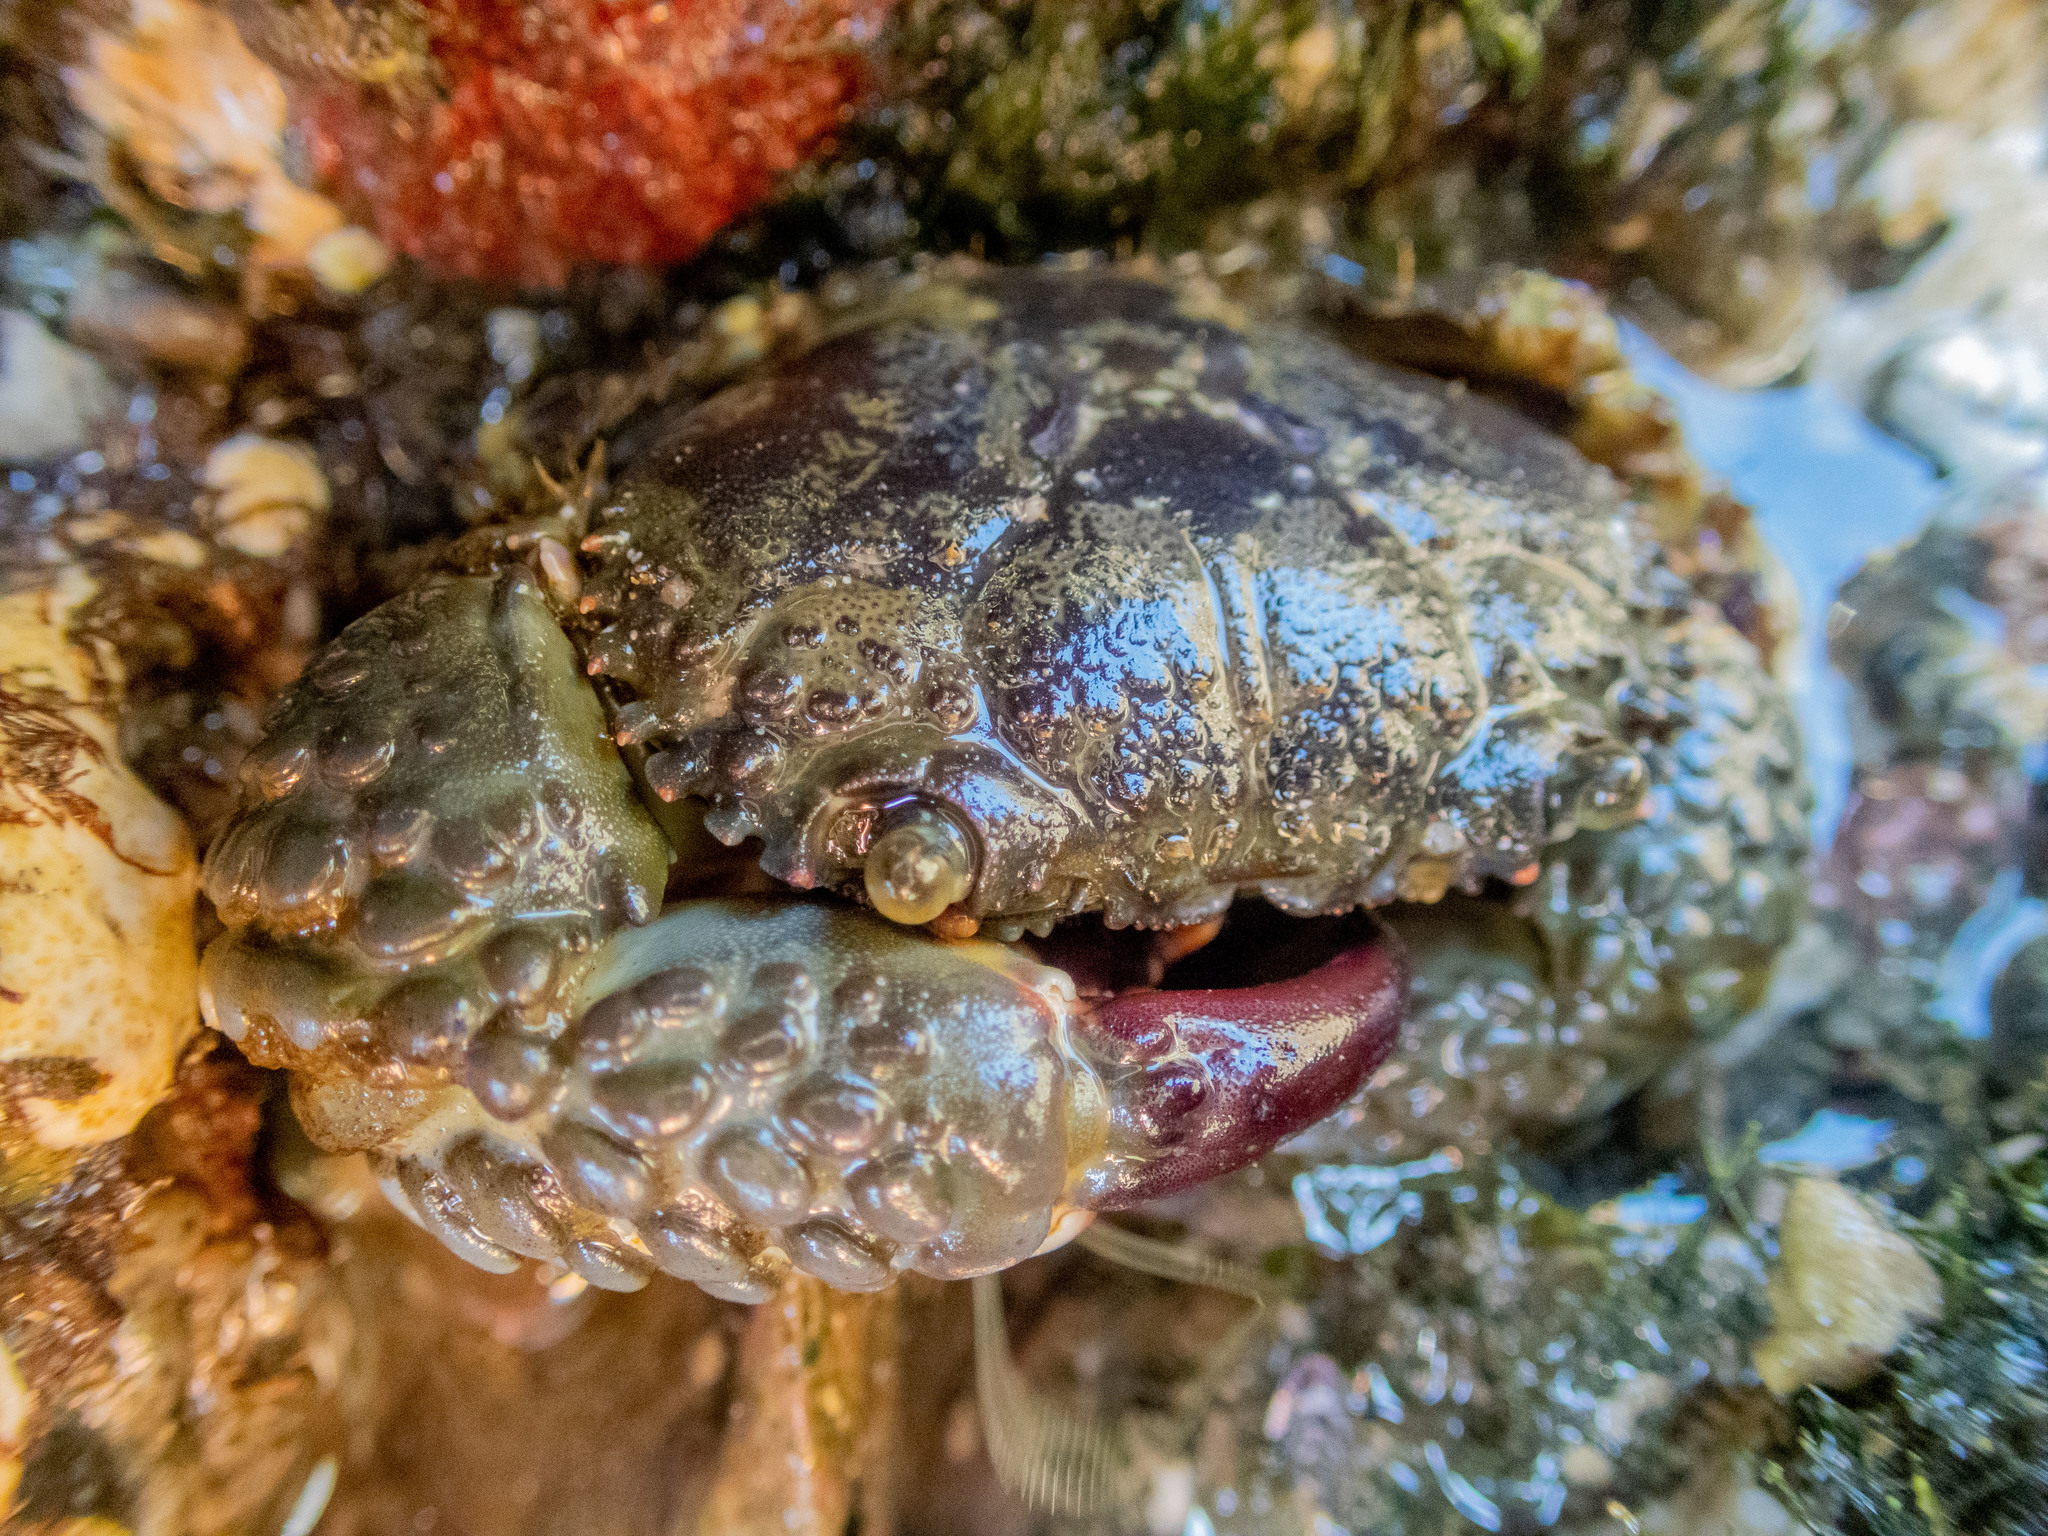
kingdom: Animalia
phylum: Arthropoda
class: Malacostraca
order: Decapoda
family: Eriphiidae
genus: Eriphia
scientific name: Eriphia squamata
